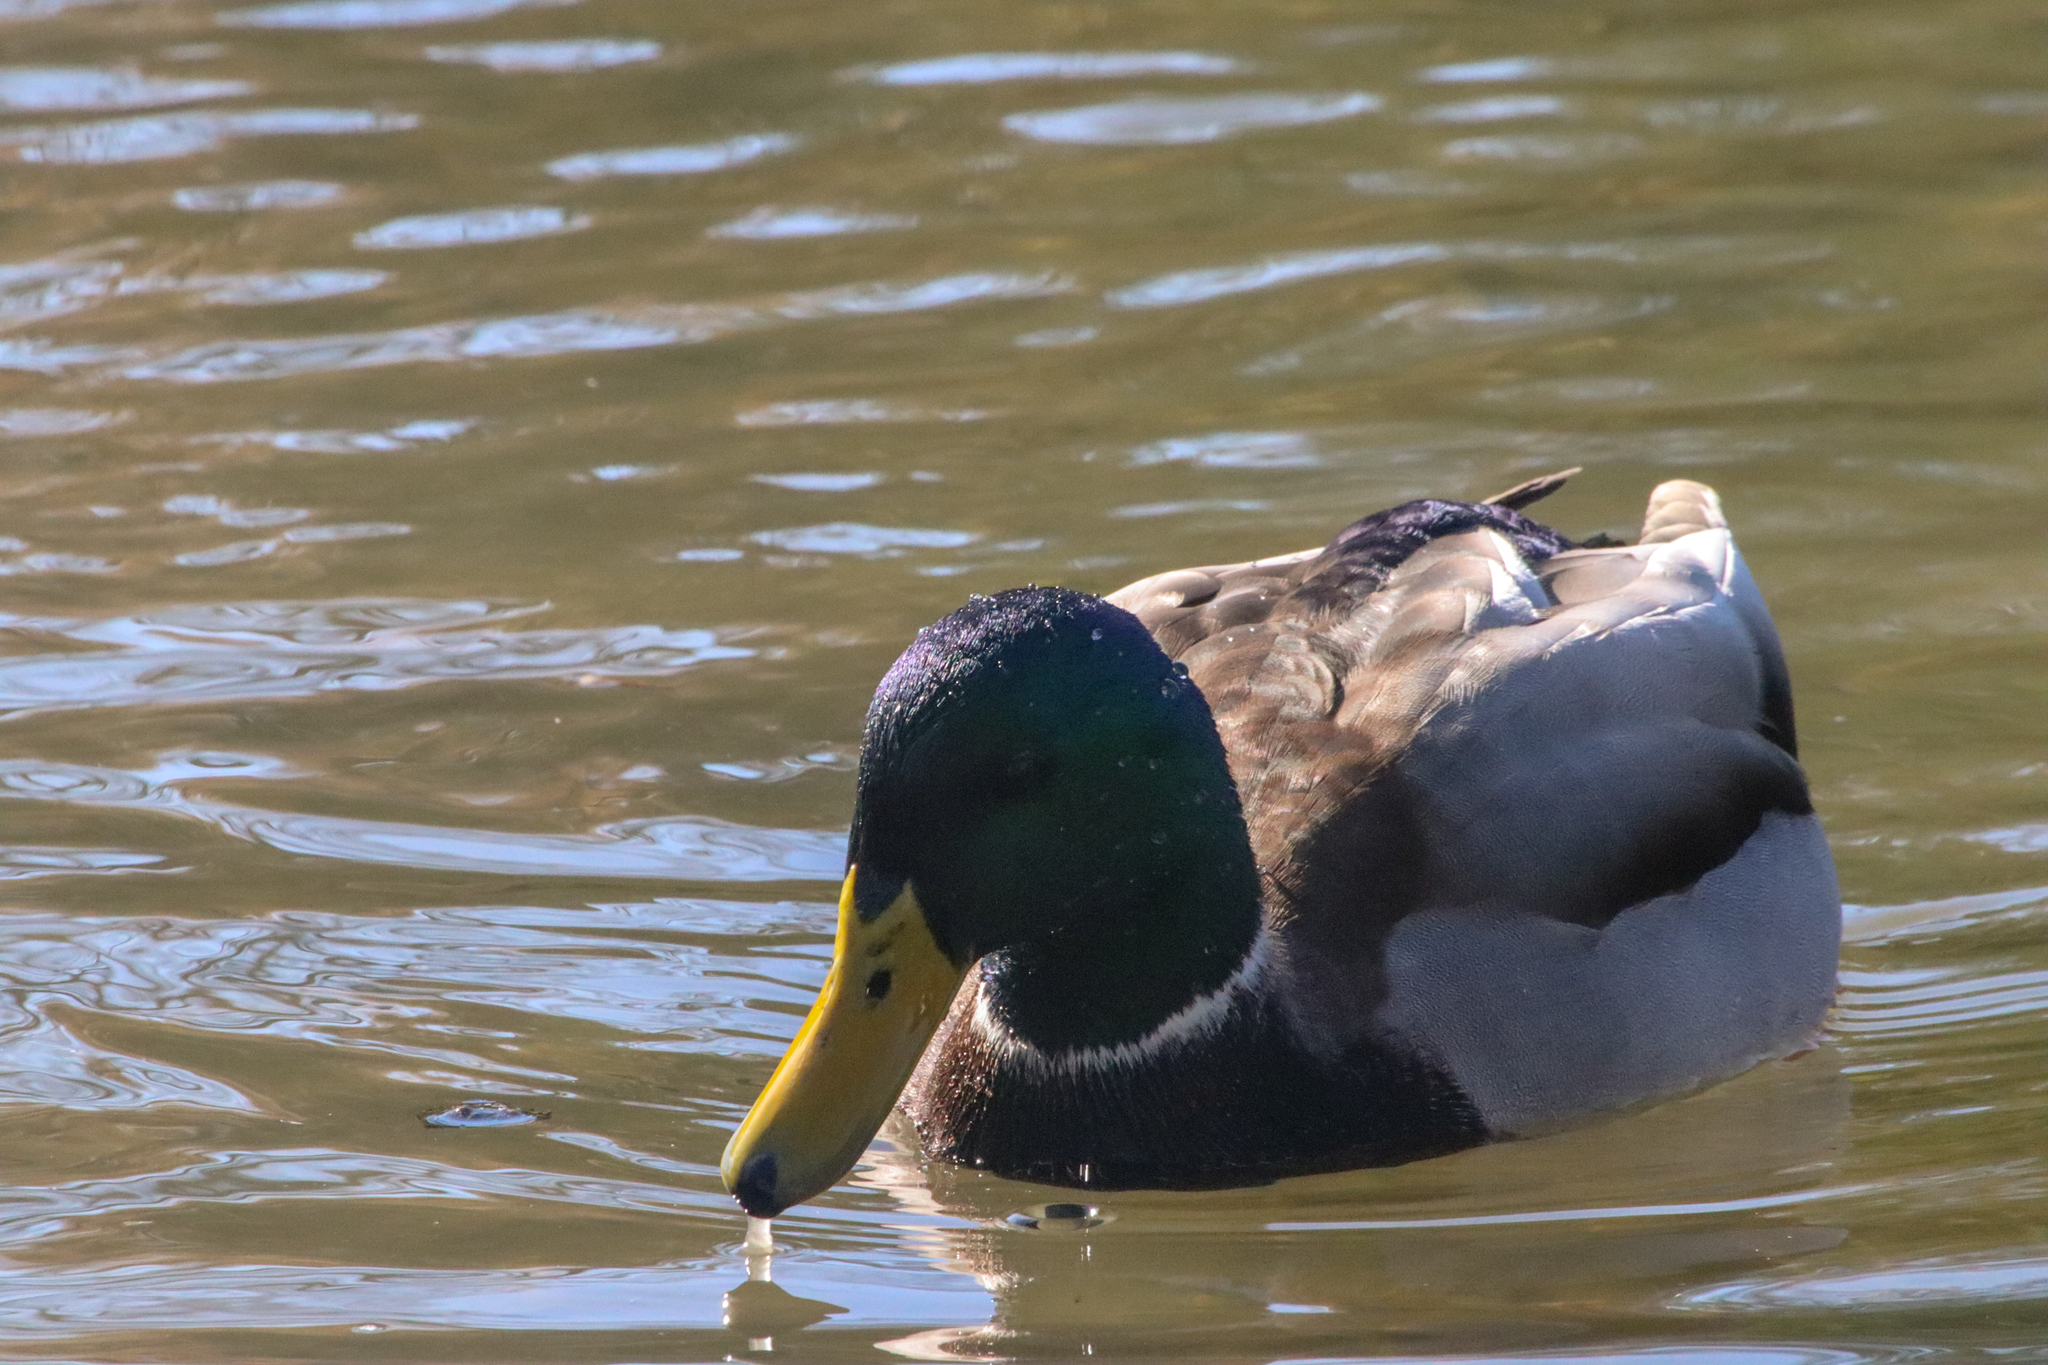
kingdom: Animalia
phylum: Chordata
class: Aves
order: Anseriformes
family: Anatidae
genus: Anas
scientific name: Anas platyrhynchos
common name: Mallard
